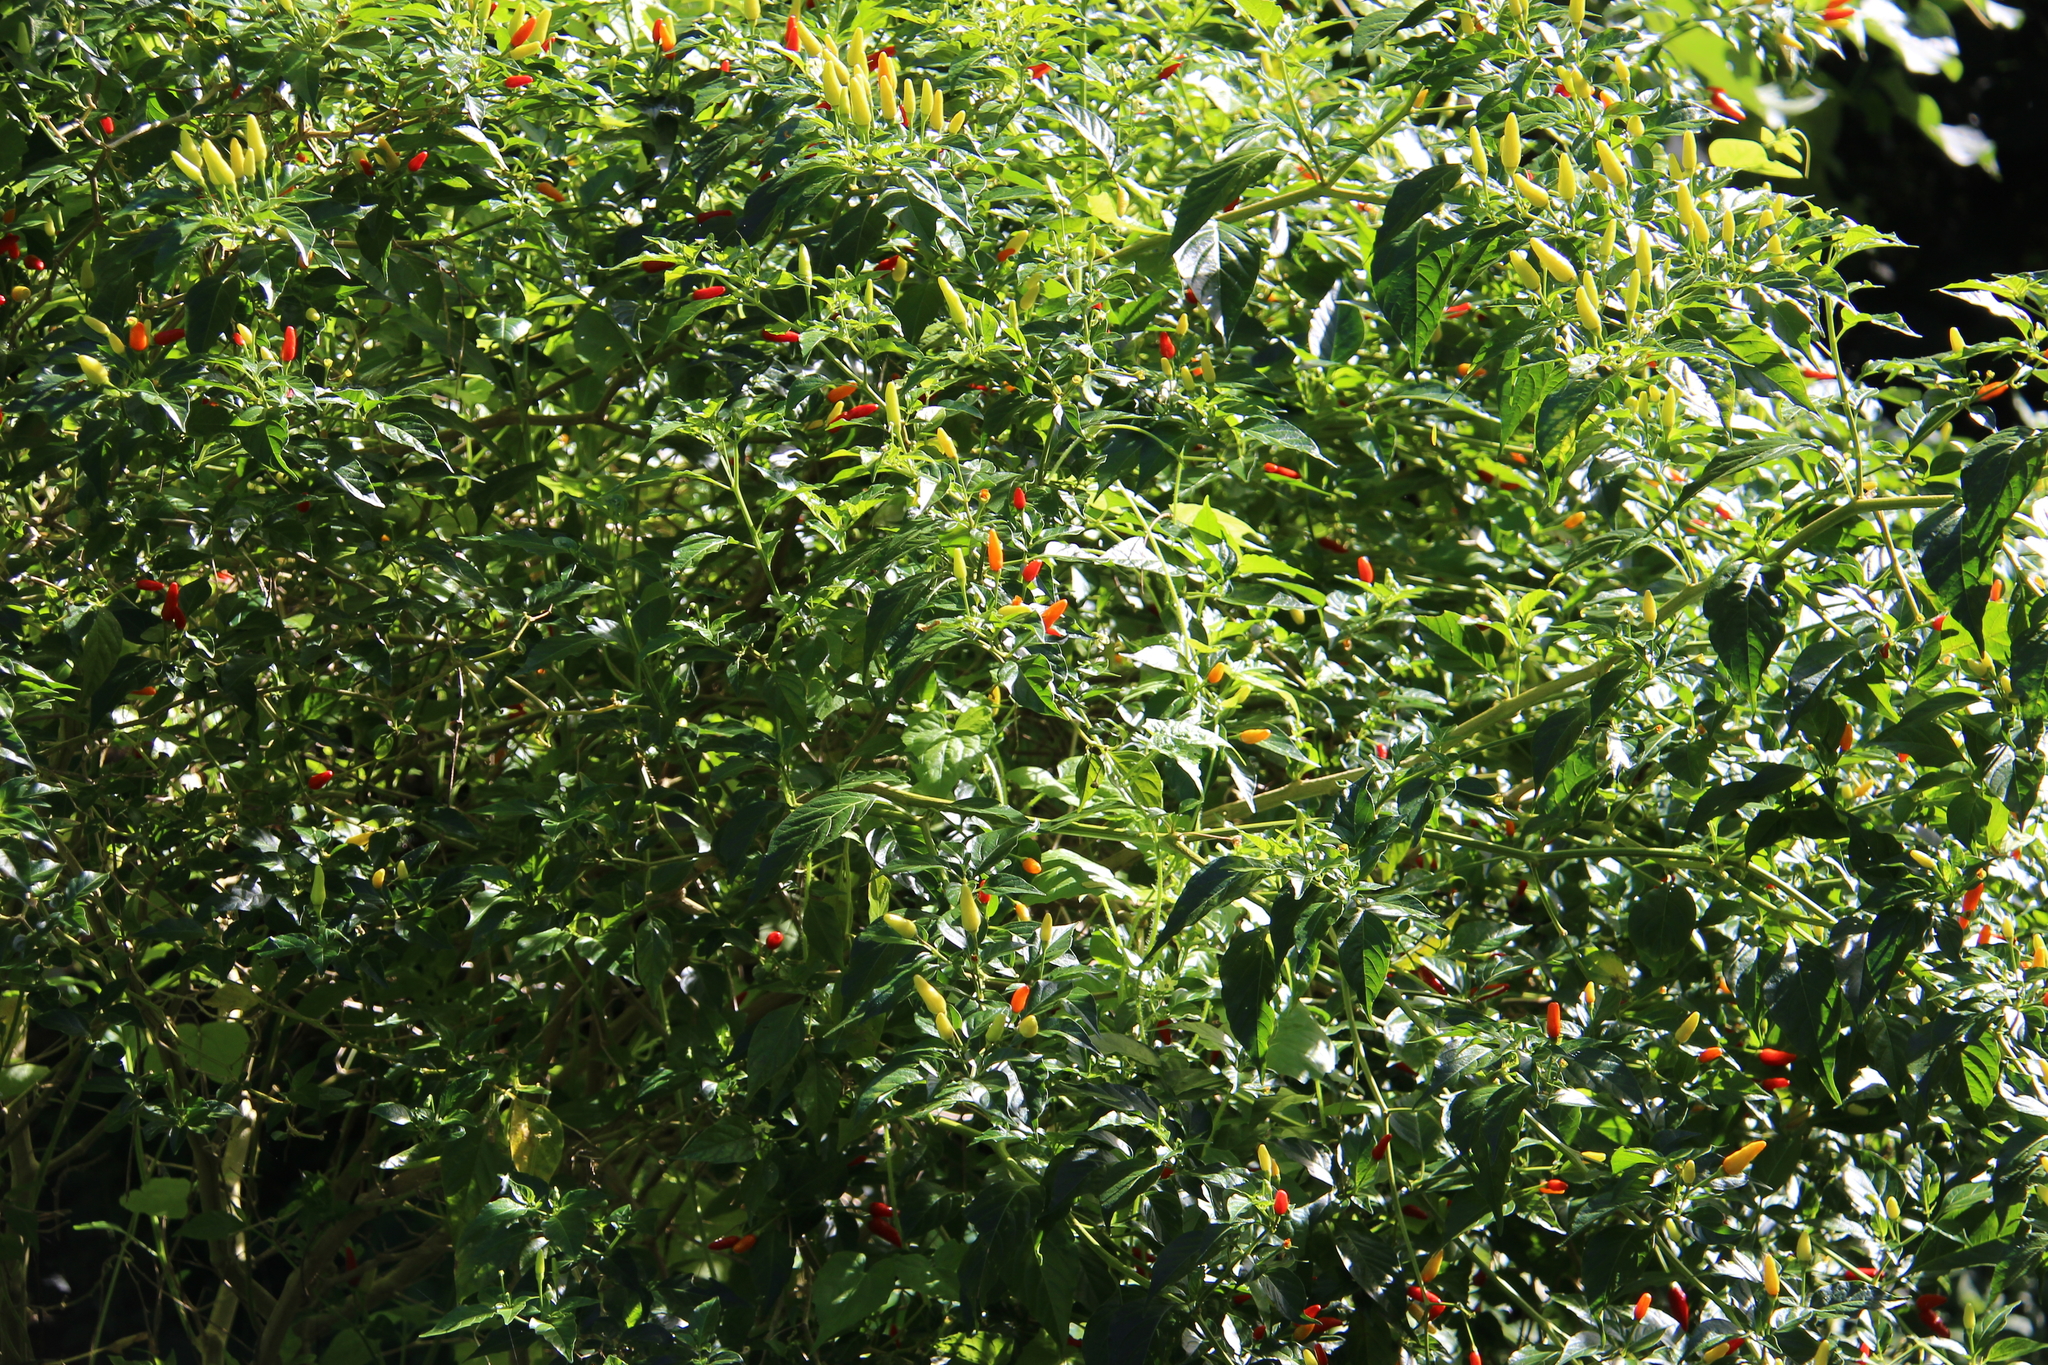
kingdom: Plantae
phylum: Tracheophyta
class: Magnoliopsida
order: Solanales
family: Solanaceae
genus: Capsicum
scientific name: Capsicum frutescens
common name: Bird pepper
